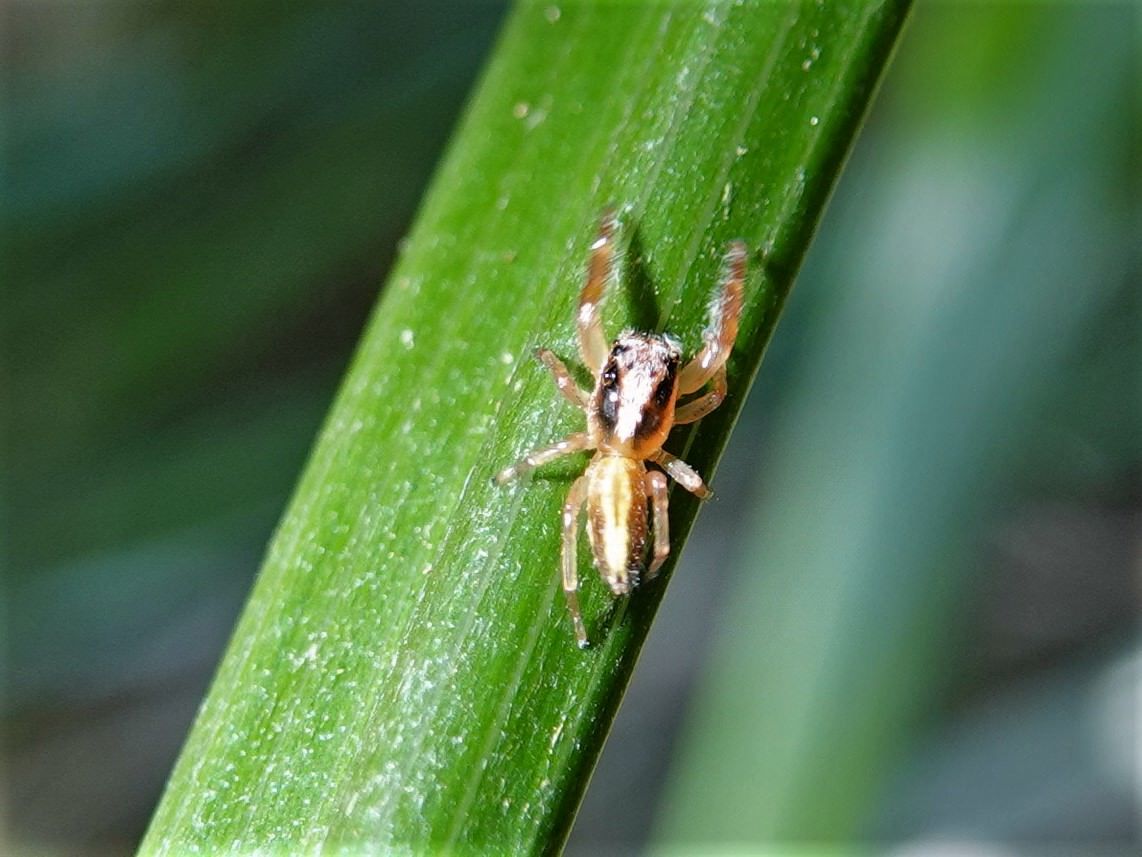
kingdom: Animalia
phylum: Arthropoda
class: Arachnida
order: Araneae
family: Salticidae
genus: Trite
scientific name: Trite planiceps
